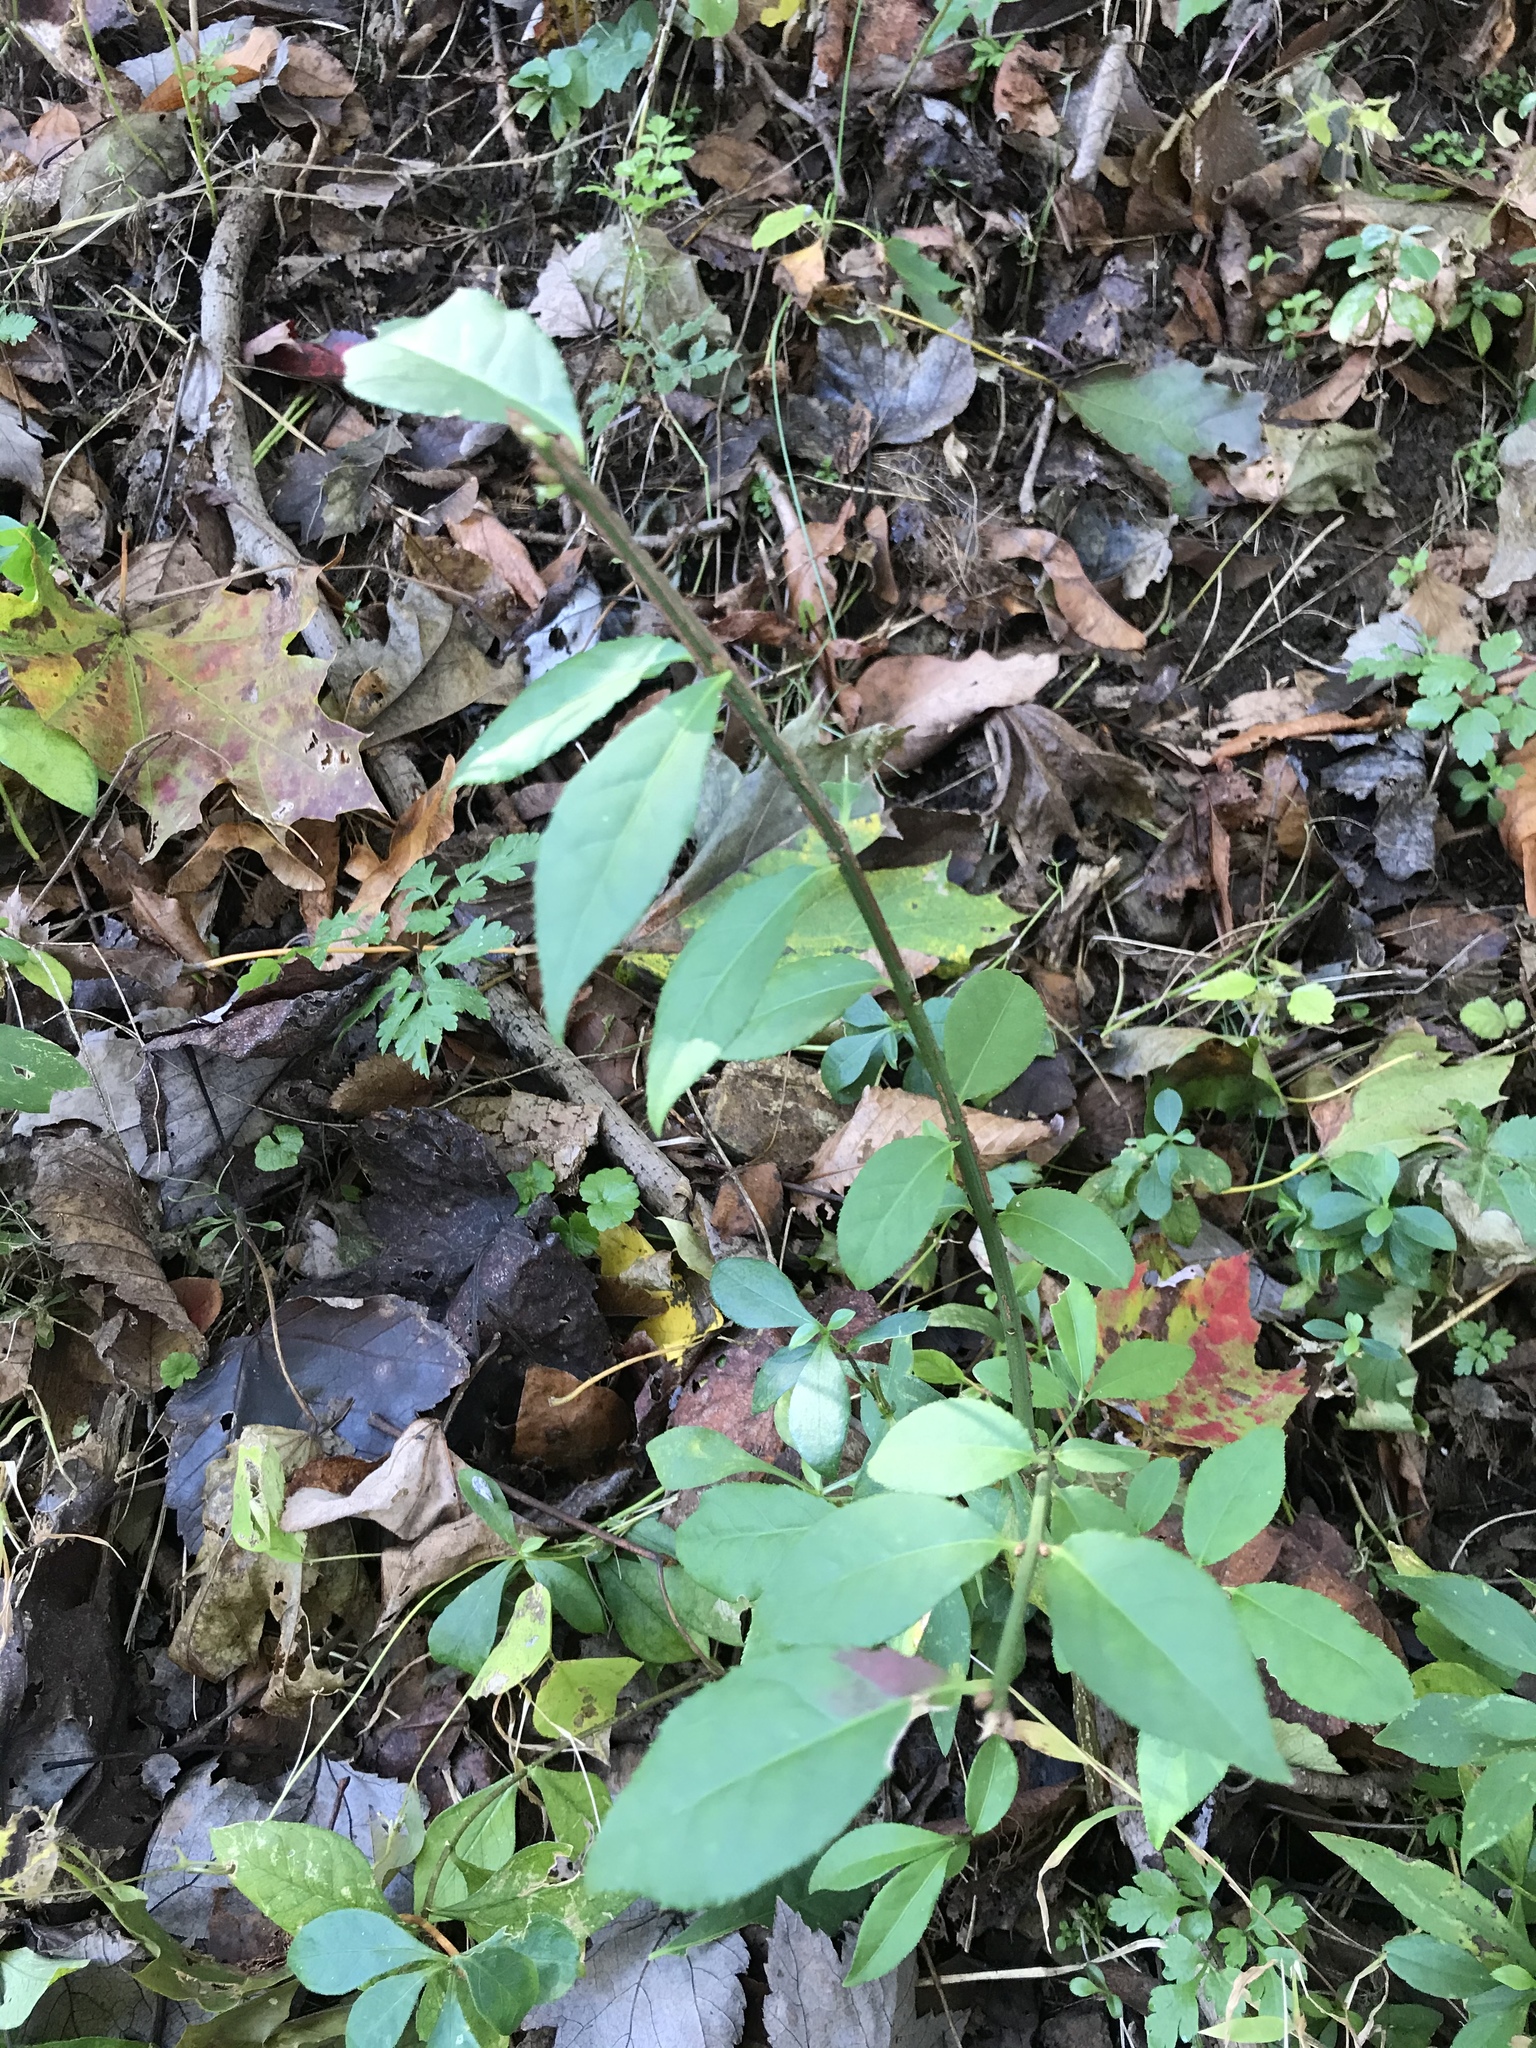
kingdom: Plantae
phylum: Tracheophyta
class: Magnoliopsida
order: Celastrales
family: Celastraceae
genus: Euonymus
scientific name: Euonymus alatus
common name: Winged euonymus
